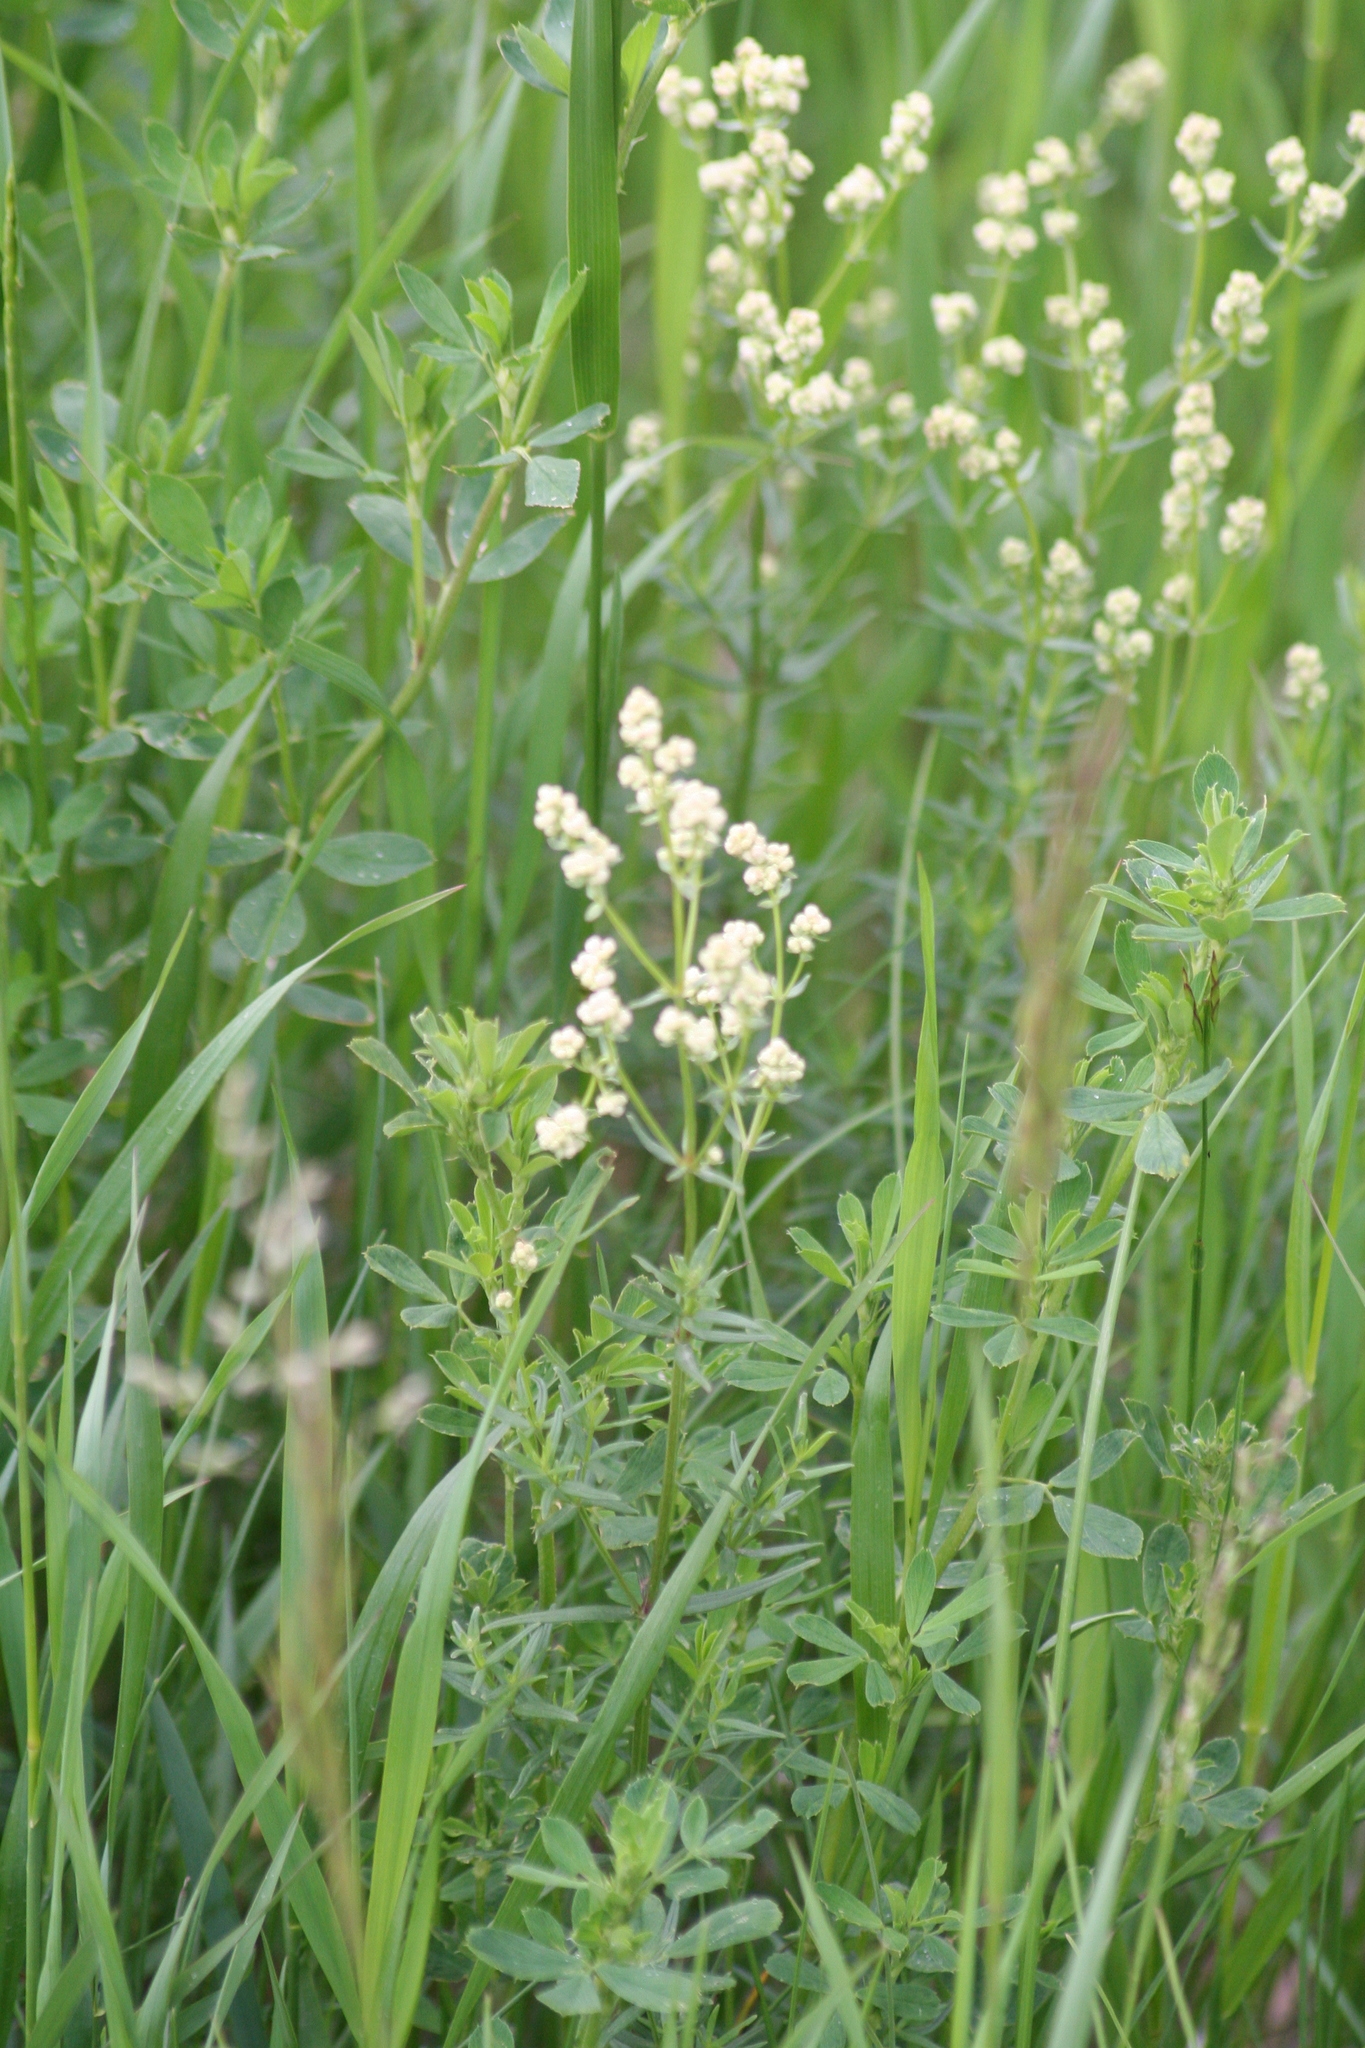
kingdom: Plantae
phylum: Tracheophyta
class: Magnoliopsida
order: Gentianales
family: Rubiaceae
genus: Galium
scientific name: Galium boreale
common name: Northern bedstraw
